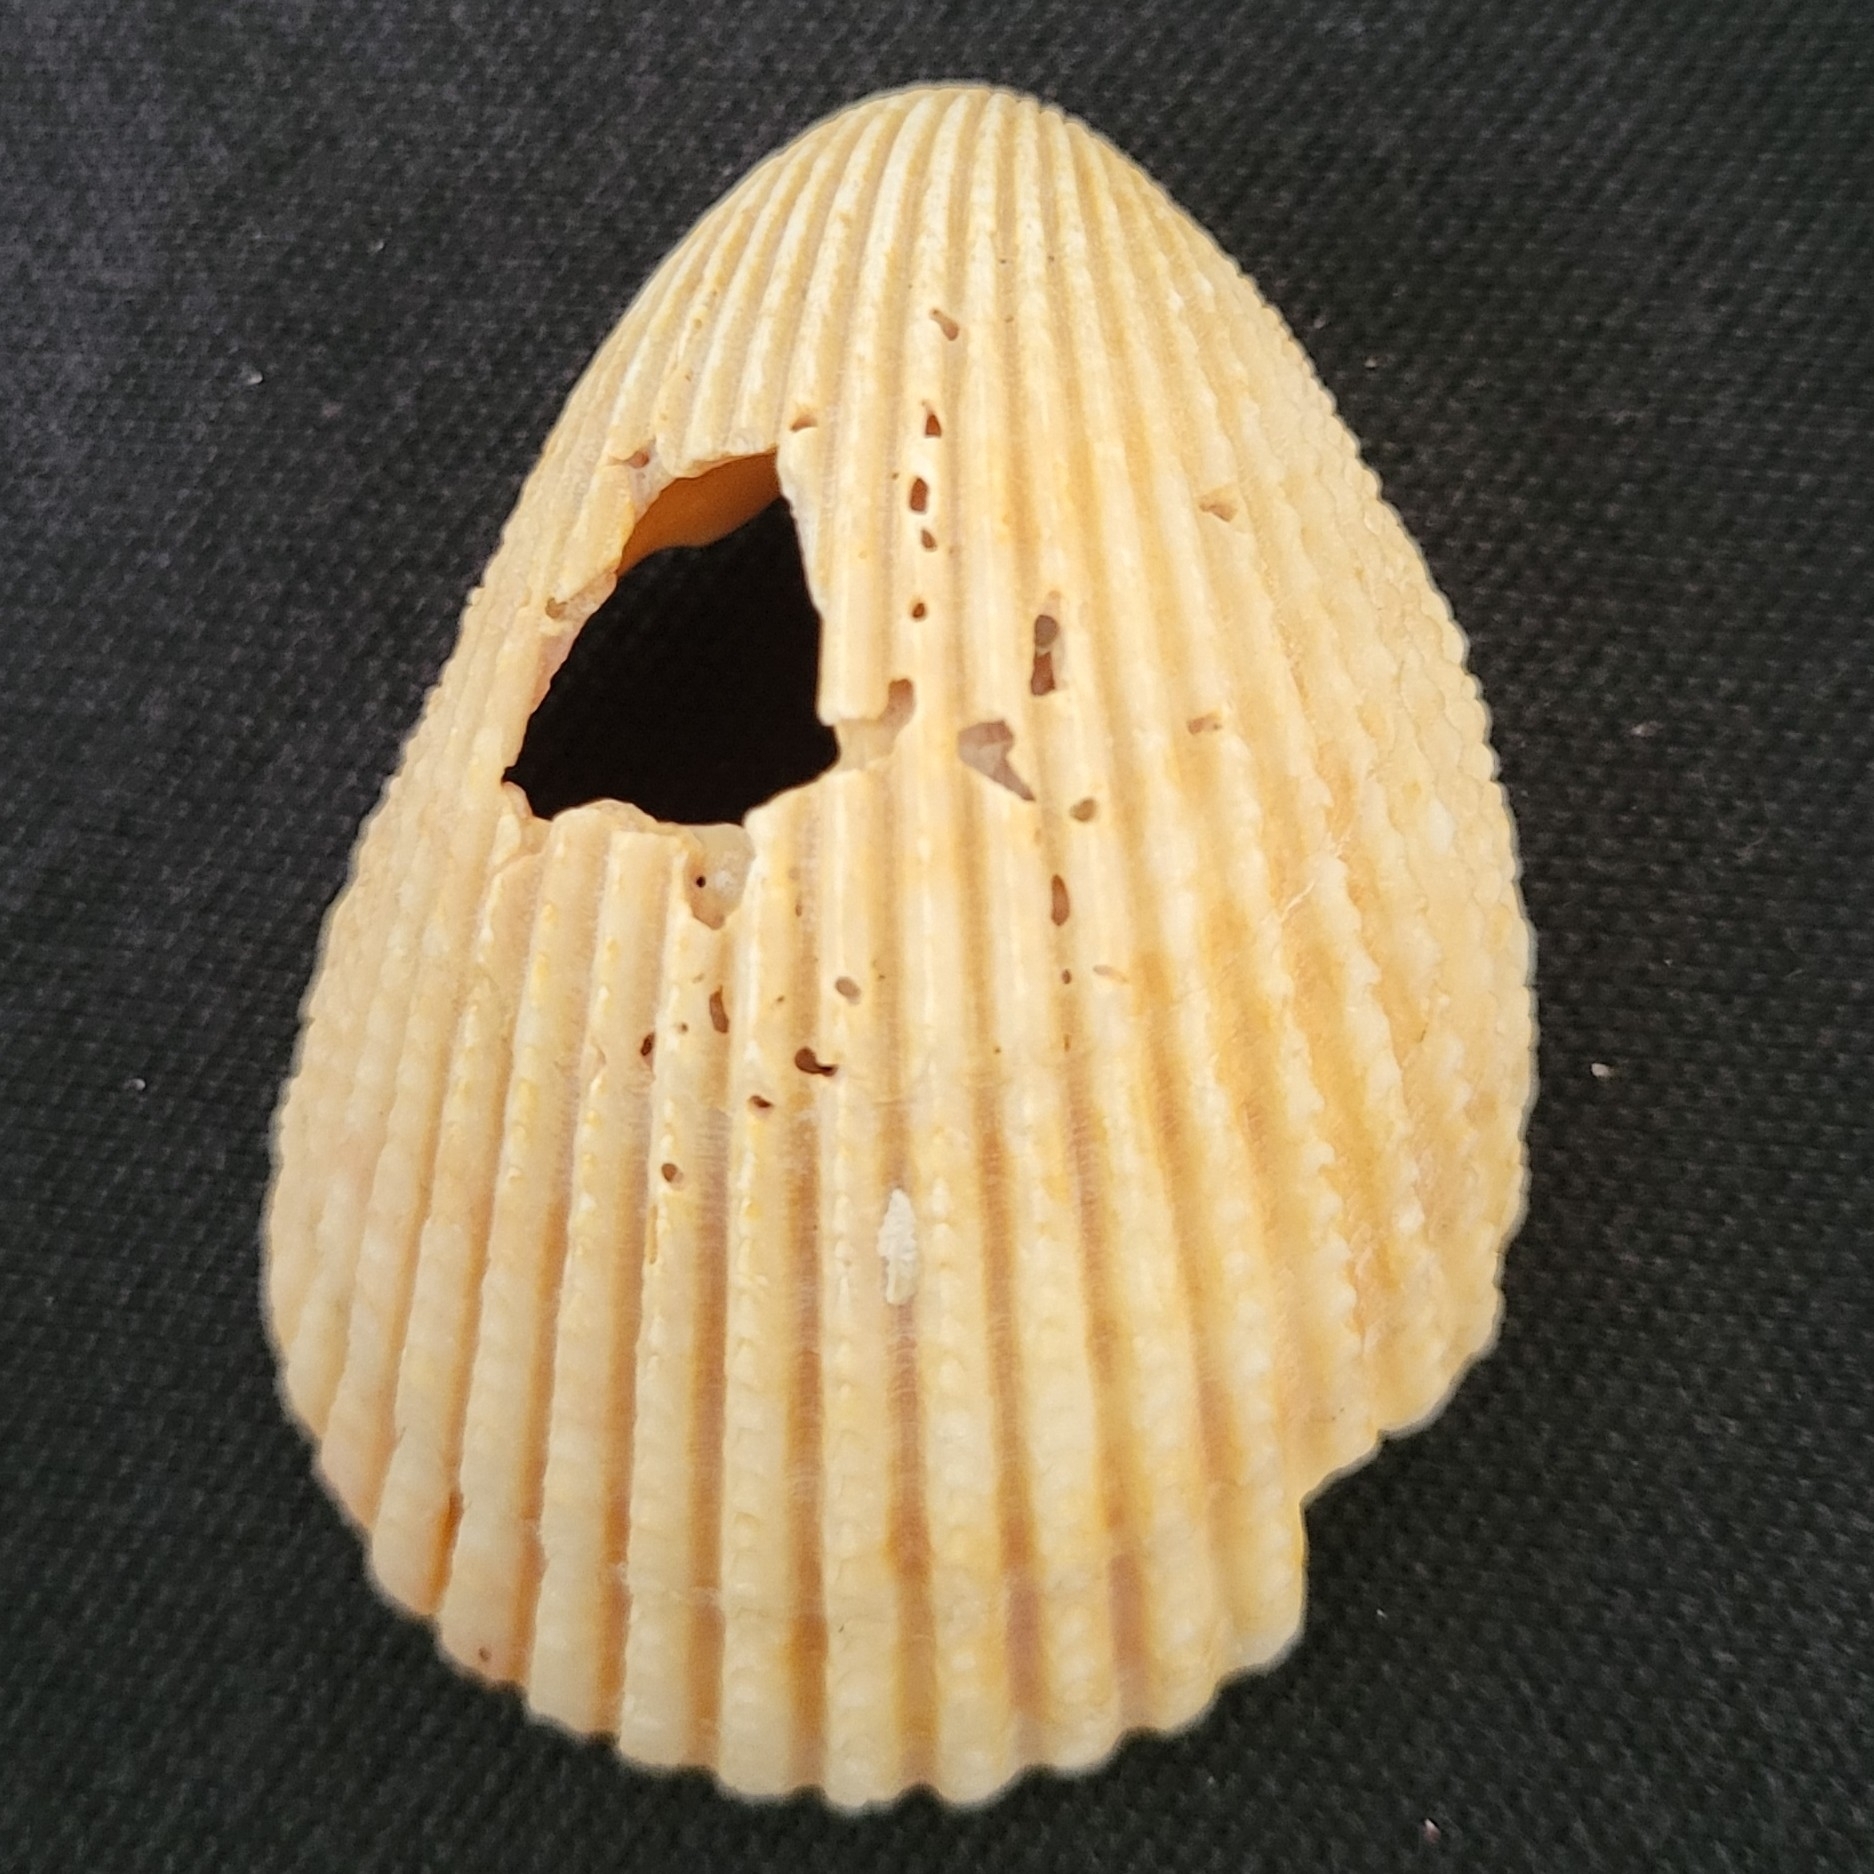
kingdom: Animalia
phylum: Mollusca
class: Bivalvia
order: Cardiida
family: Cardiidae
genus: Trachycardium
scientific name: Trachycardium egmontianum
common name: Florida pricklycockle
